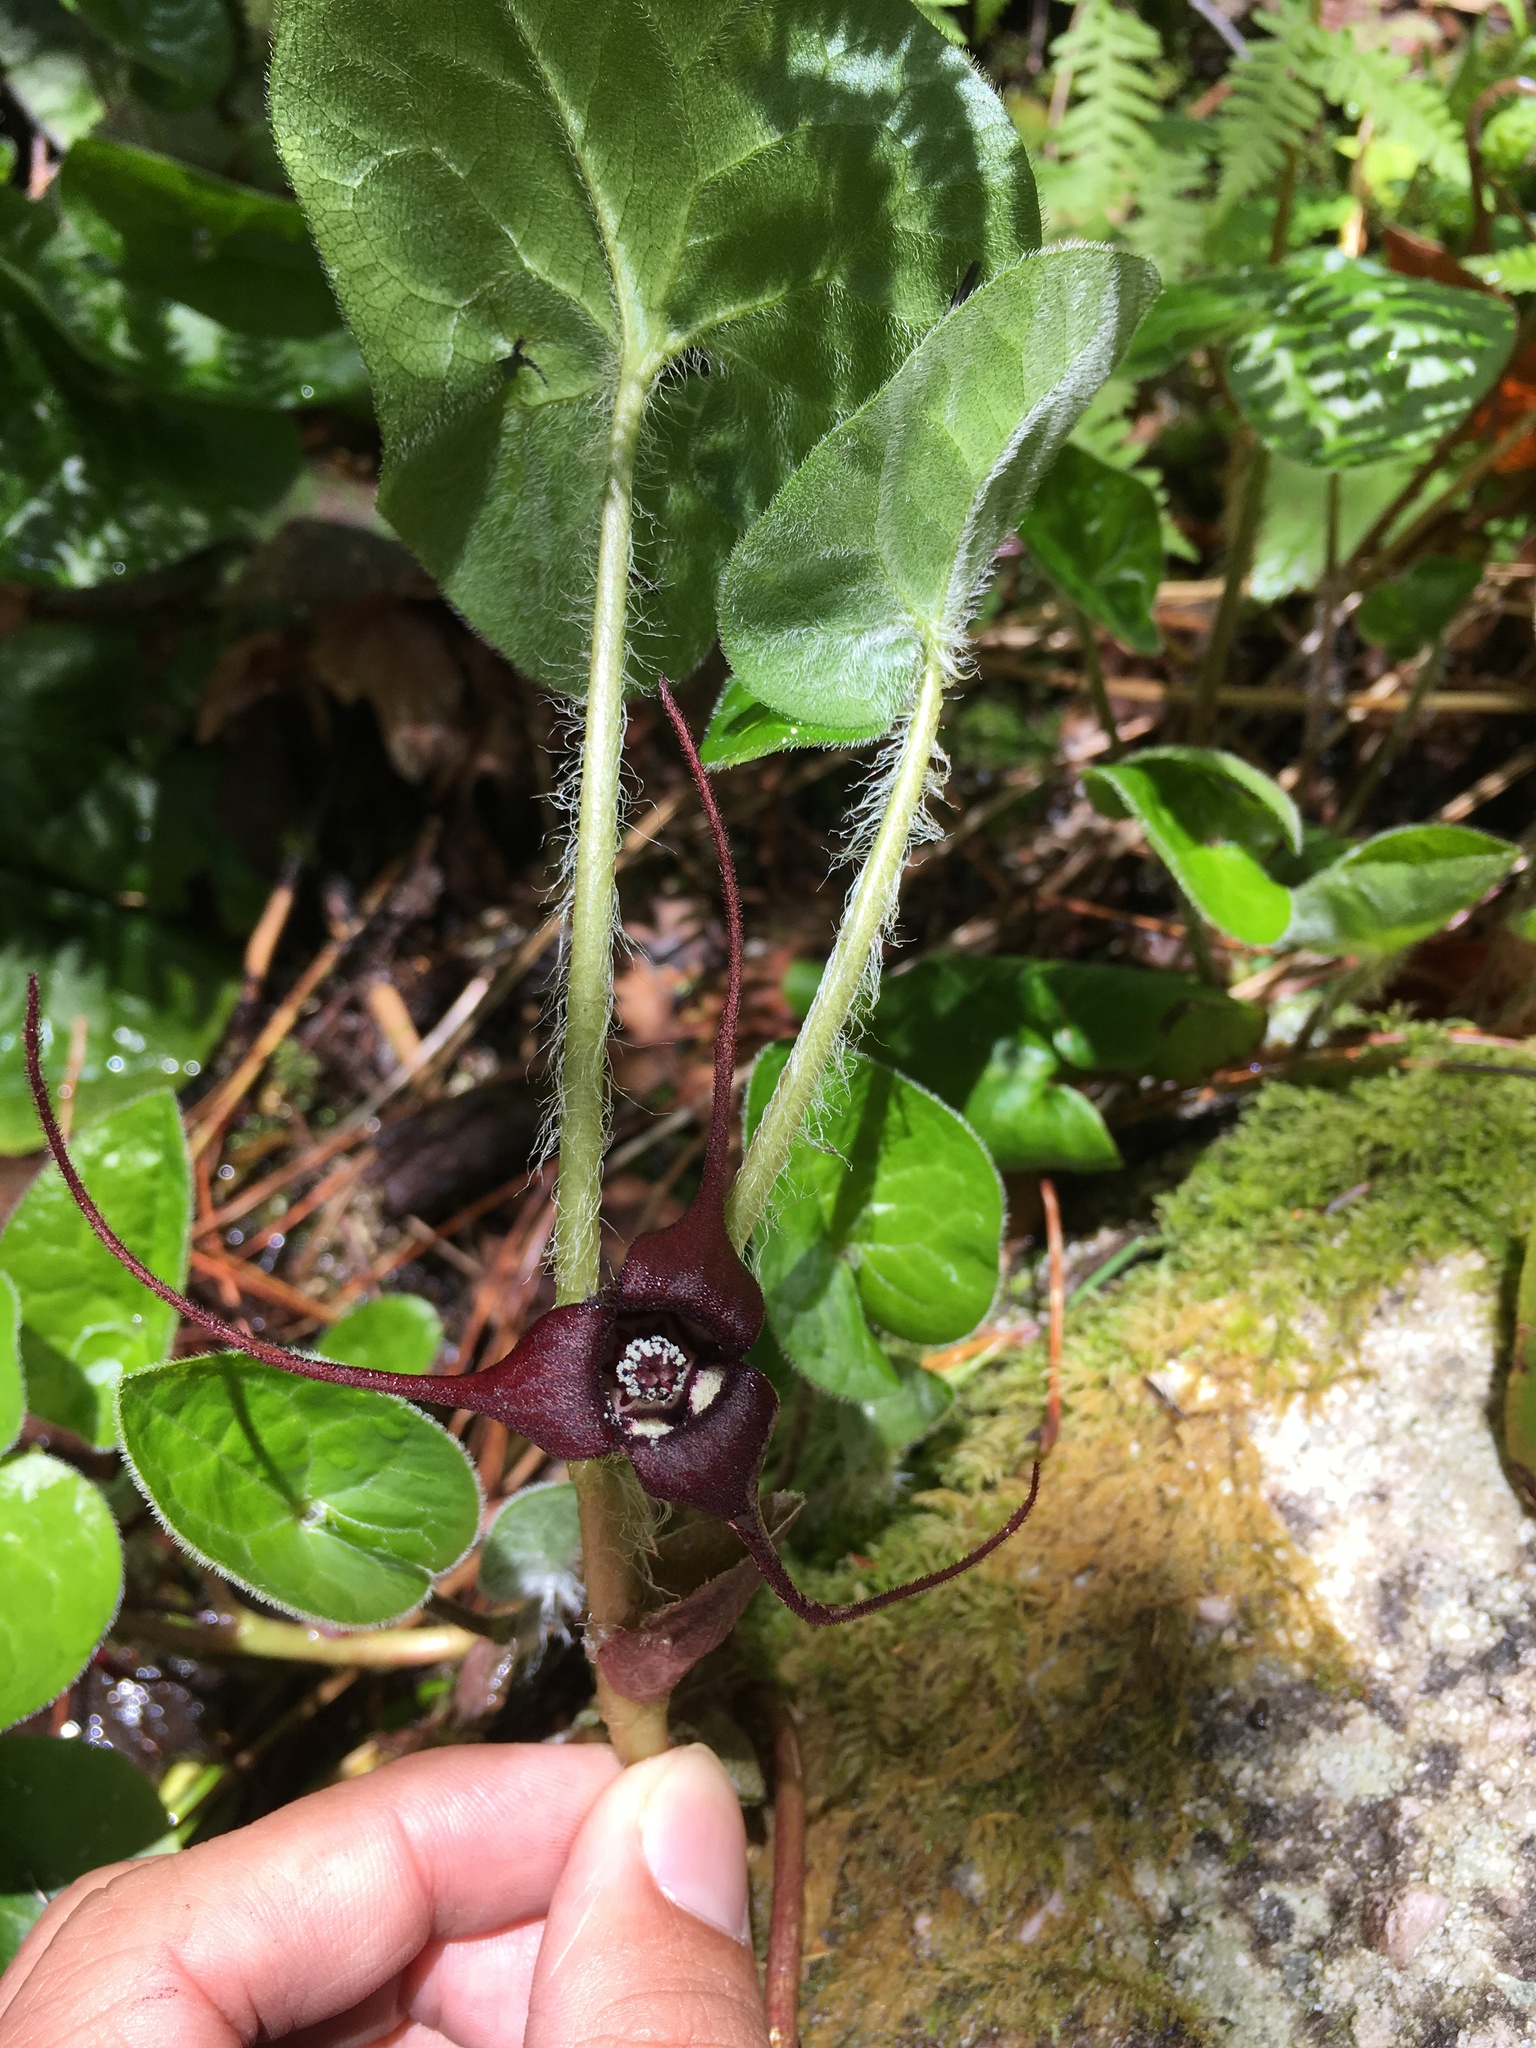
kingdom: Plantae
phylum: Tracheophyta
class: Magnoliopsida
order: Piperales
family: Aristolochiaceae
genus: Asarum
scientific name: Asarum caudatum
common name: Wild ginger
